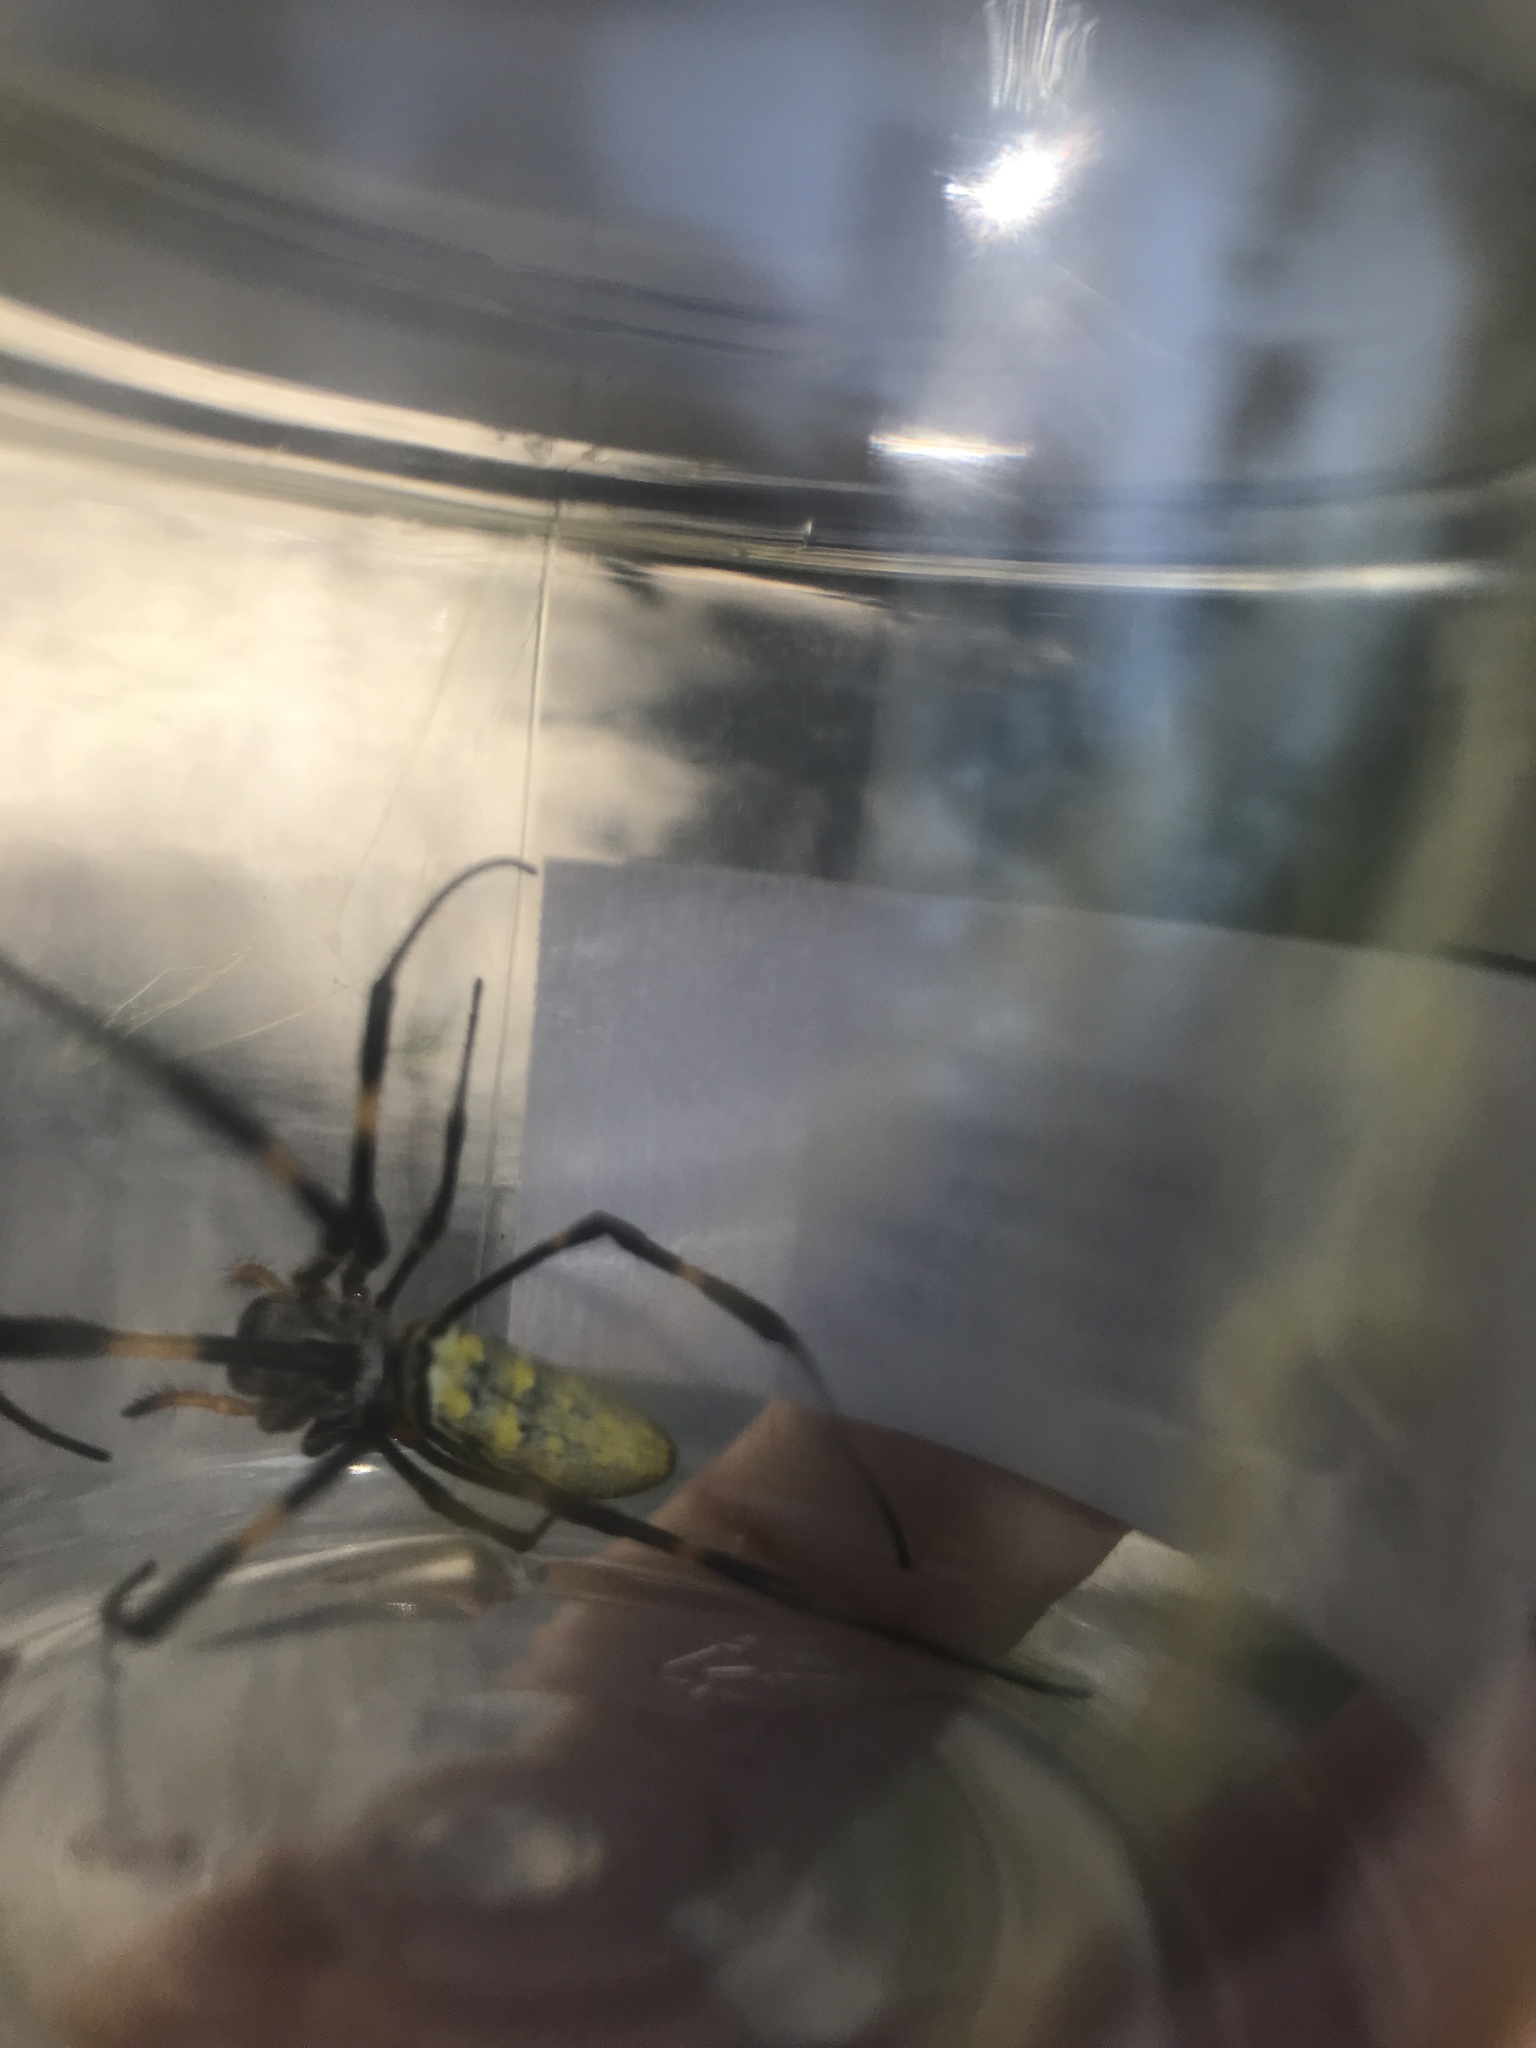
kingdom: Animalia
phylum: Arthropoda
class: Arachnida
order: Araneae
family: Araneidae
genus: Trichonephila
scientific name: Trichonephila clavata
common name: Jorō spider
